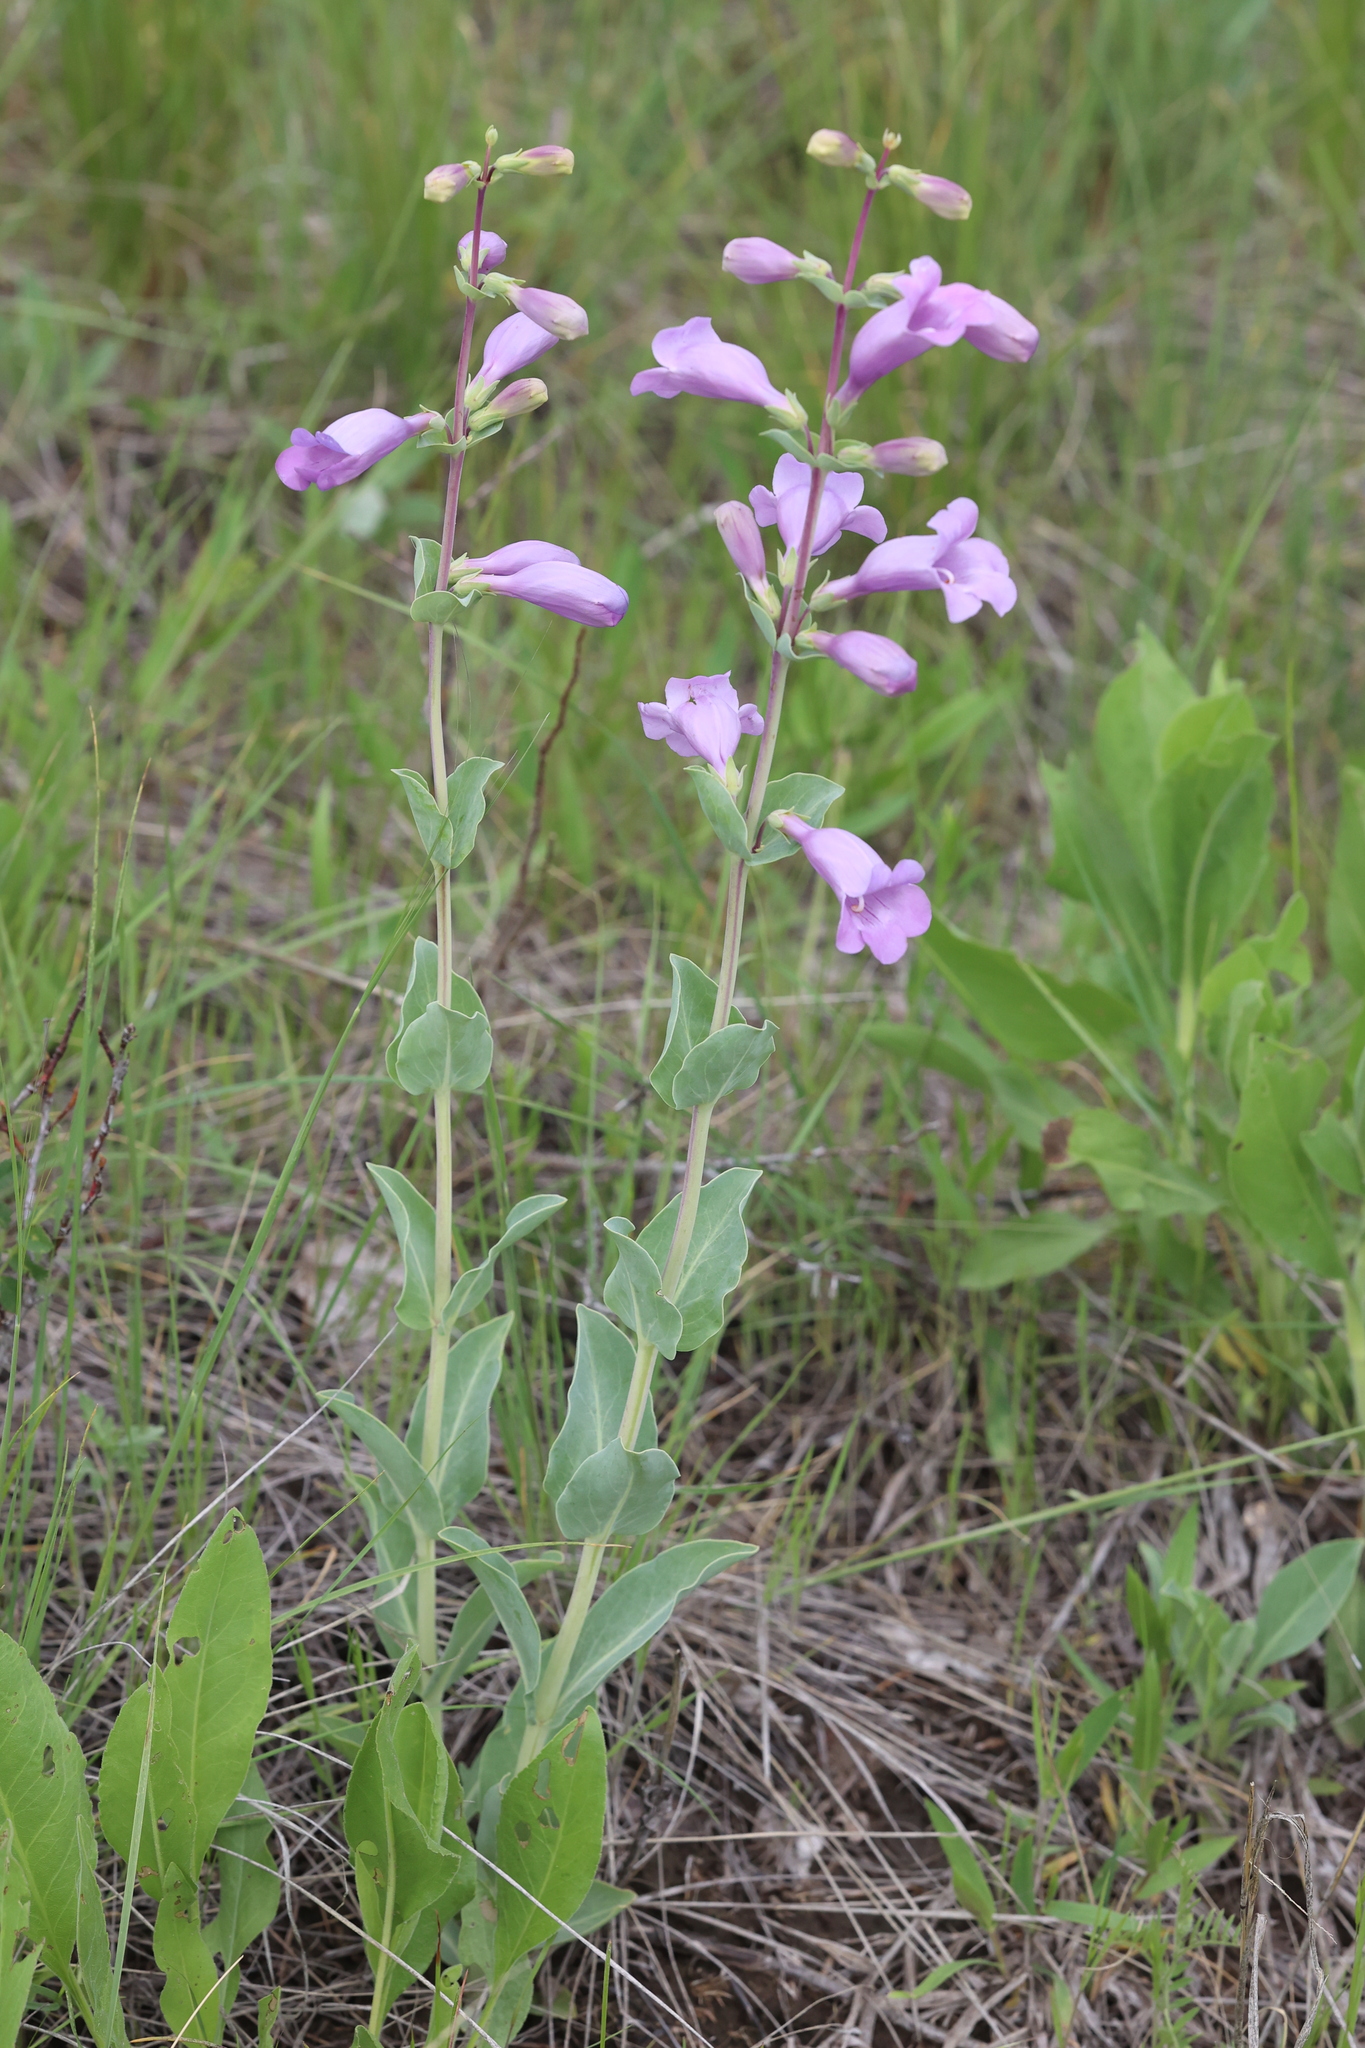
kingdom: Plantae
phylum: Tracheophyta
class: Magnoliopsida
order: Lamiales
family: Plantaginaceae
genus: Penstemon
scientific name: Penstemon
